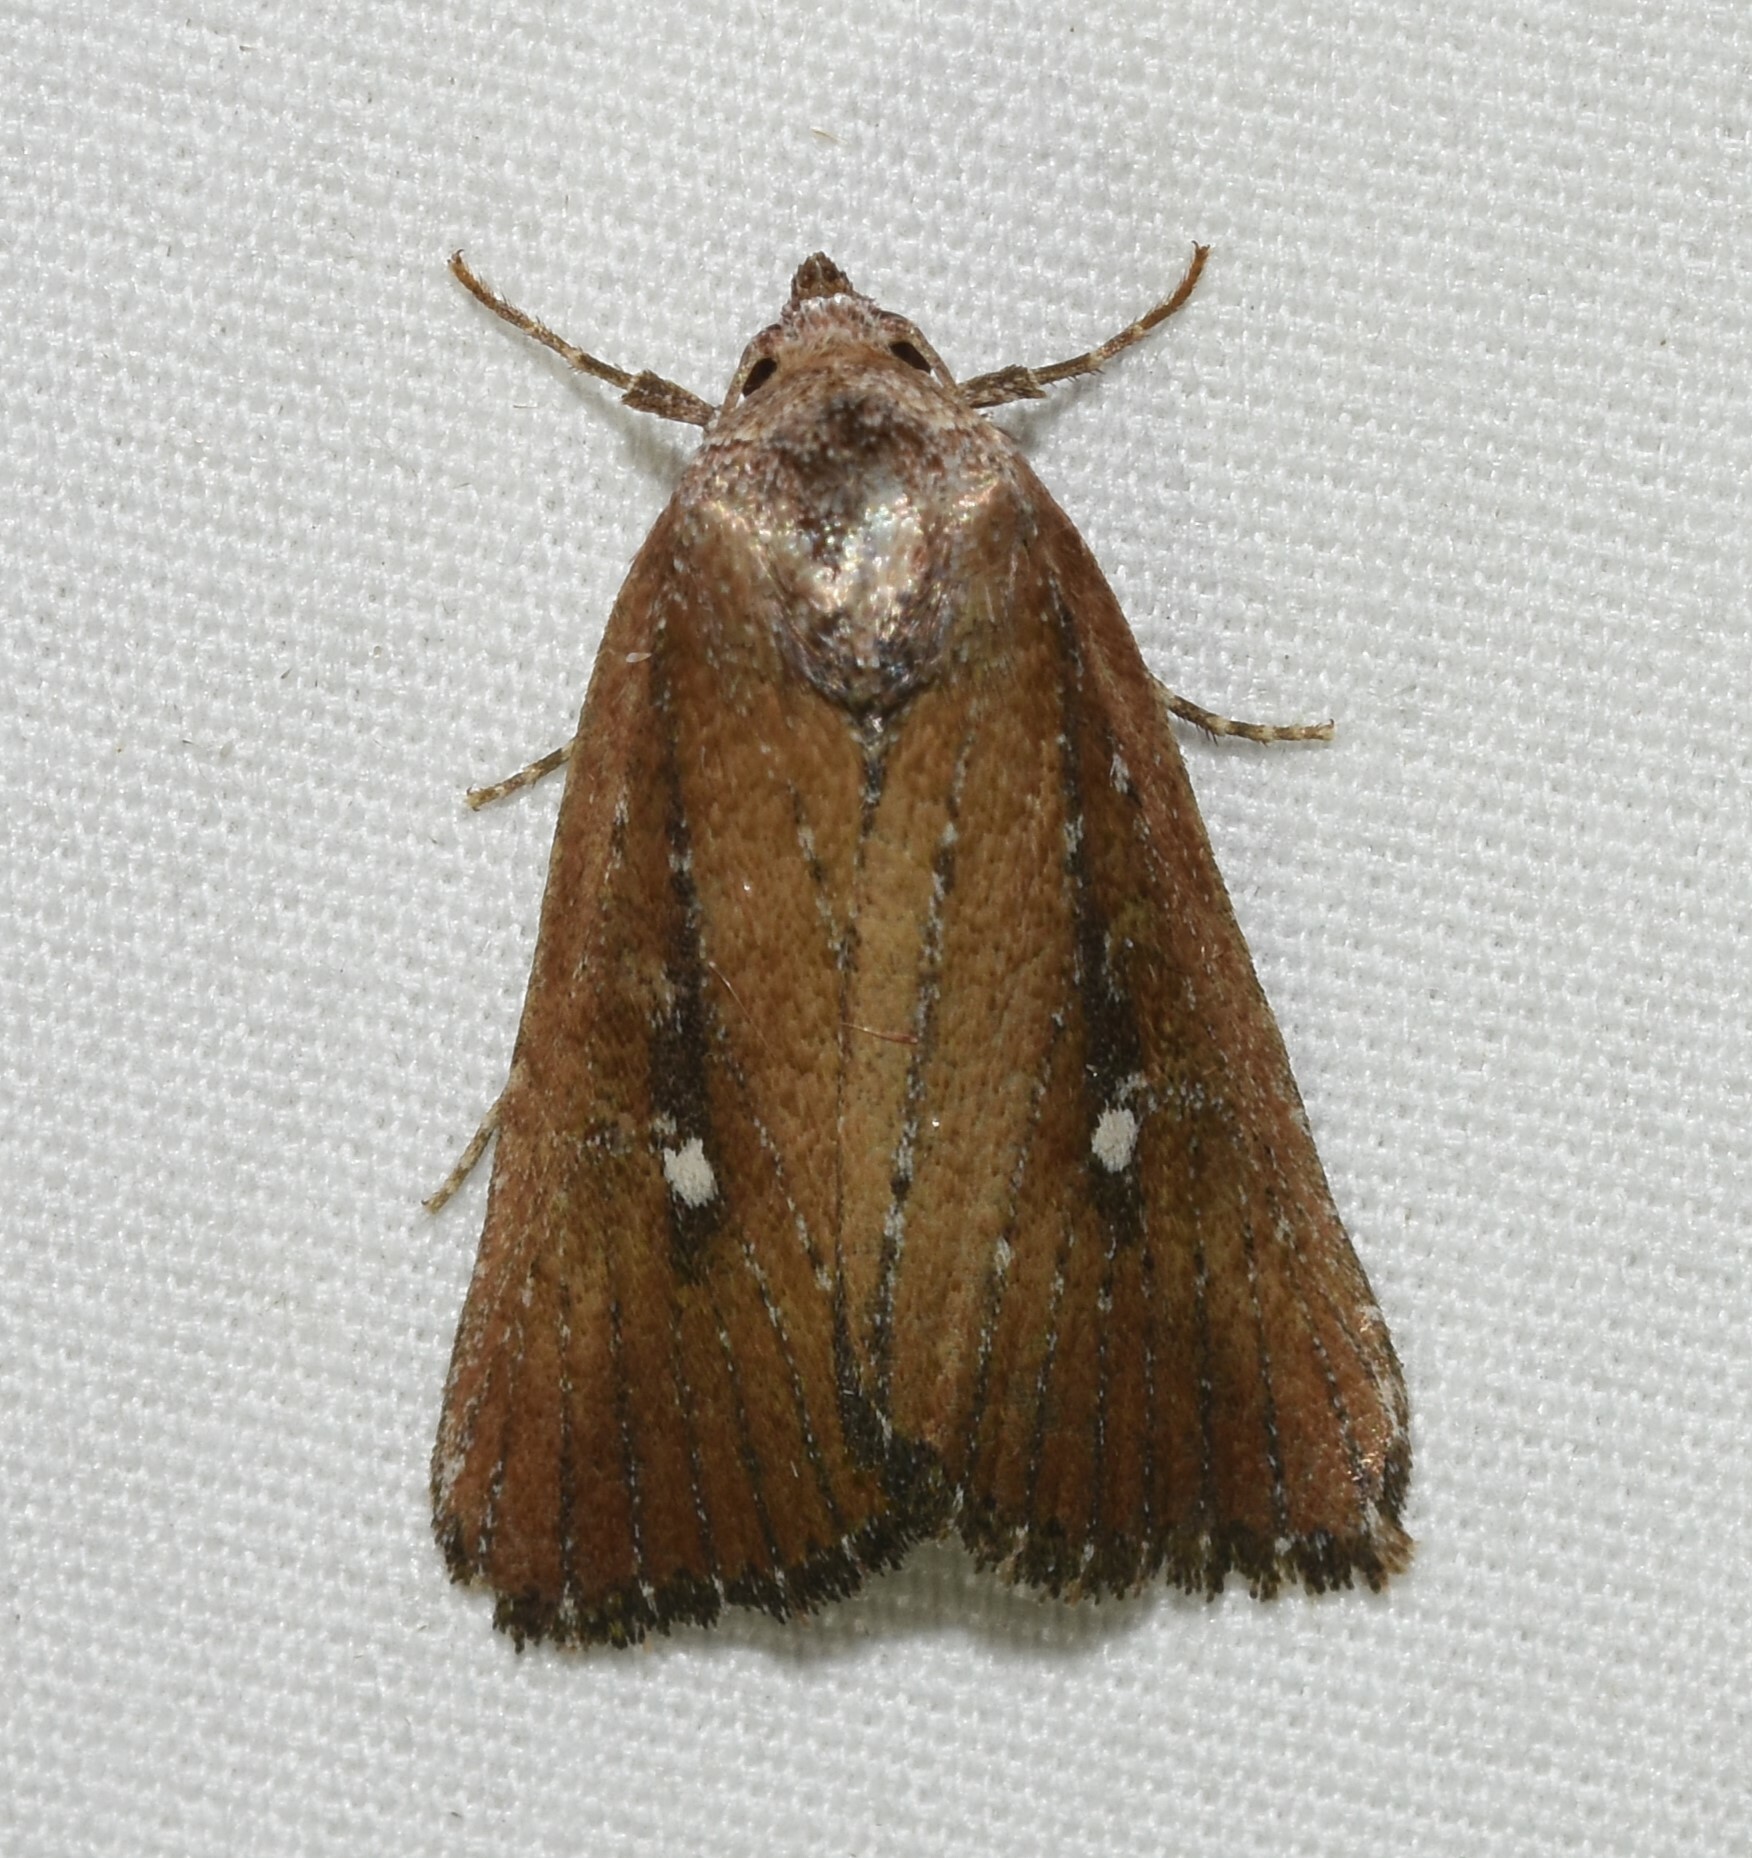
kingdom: Animalia
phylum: Arthropoda
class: Insecta
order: Lepidoptera
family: Noctuidae
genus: Condica
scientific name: Condica videns
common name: White-dotted groundling
